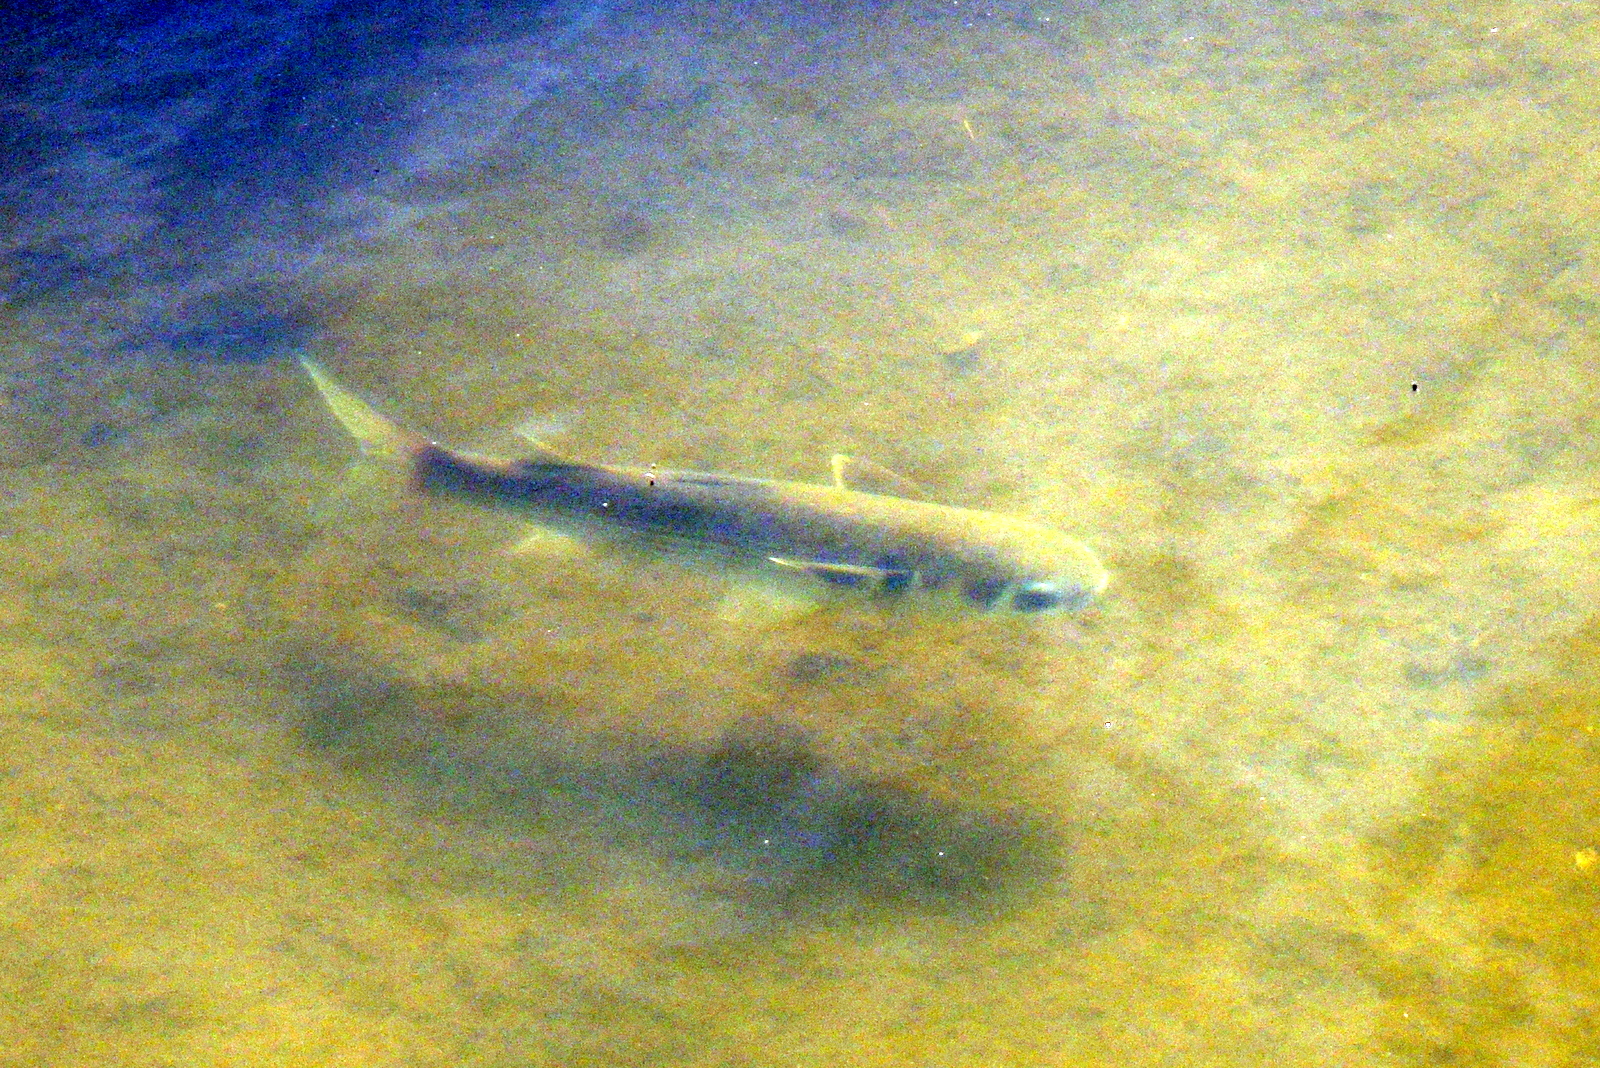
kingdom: Animalia
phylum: Chordata
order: Mugiliformes
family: Mugilidae
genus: Mugil
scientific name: Mugil cephalus
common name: Grey mullet
